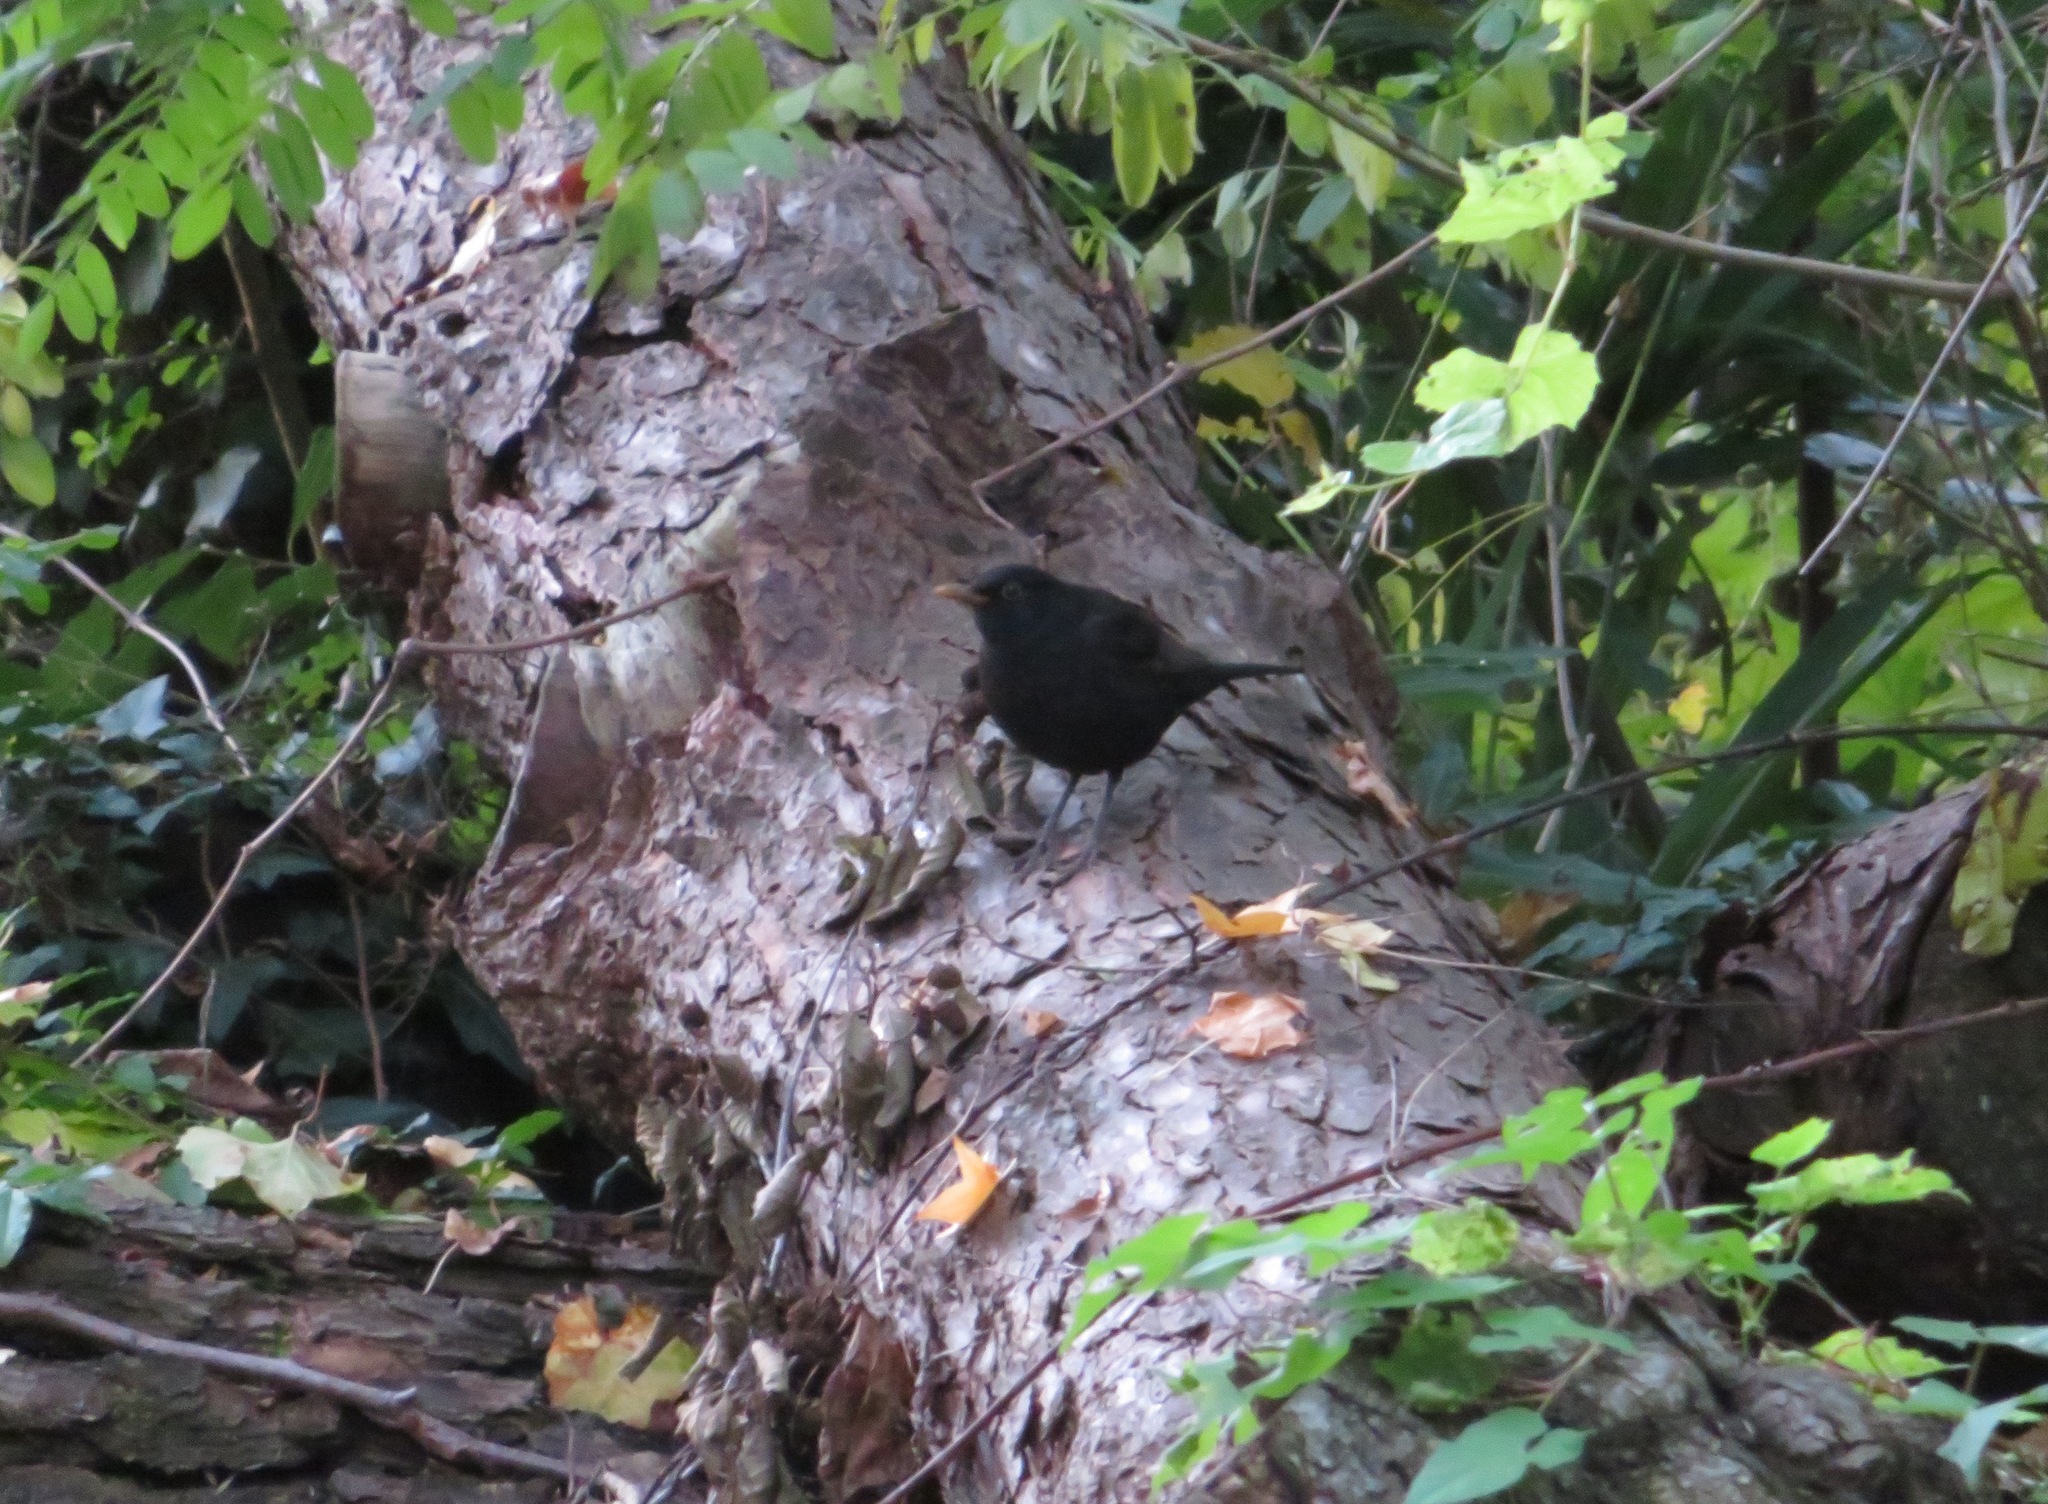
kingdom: Animalia
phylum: Chordata
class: Aves
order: Passeriformes
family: Turdidae
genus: Turdus
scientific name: Turdus merula
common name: Common blackbird
